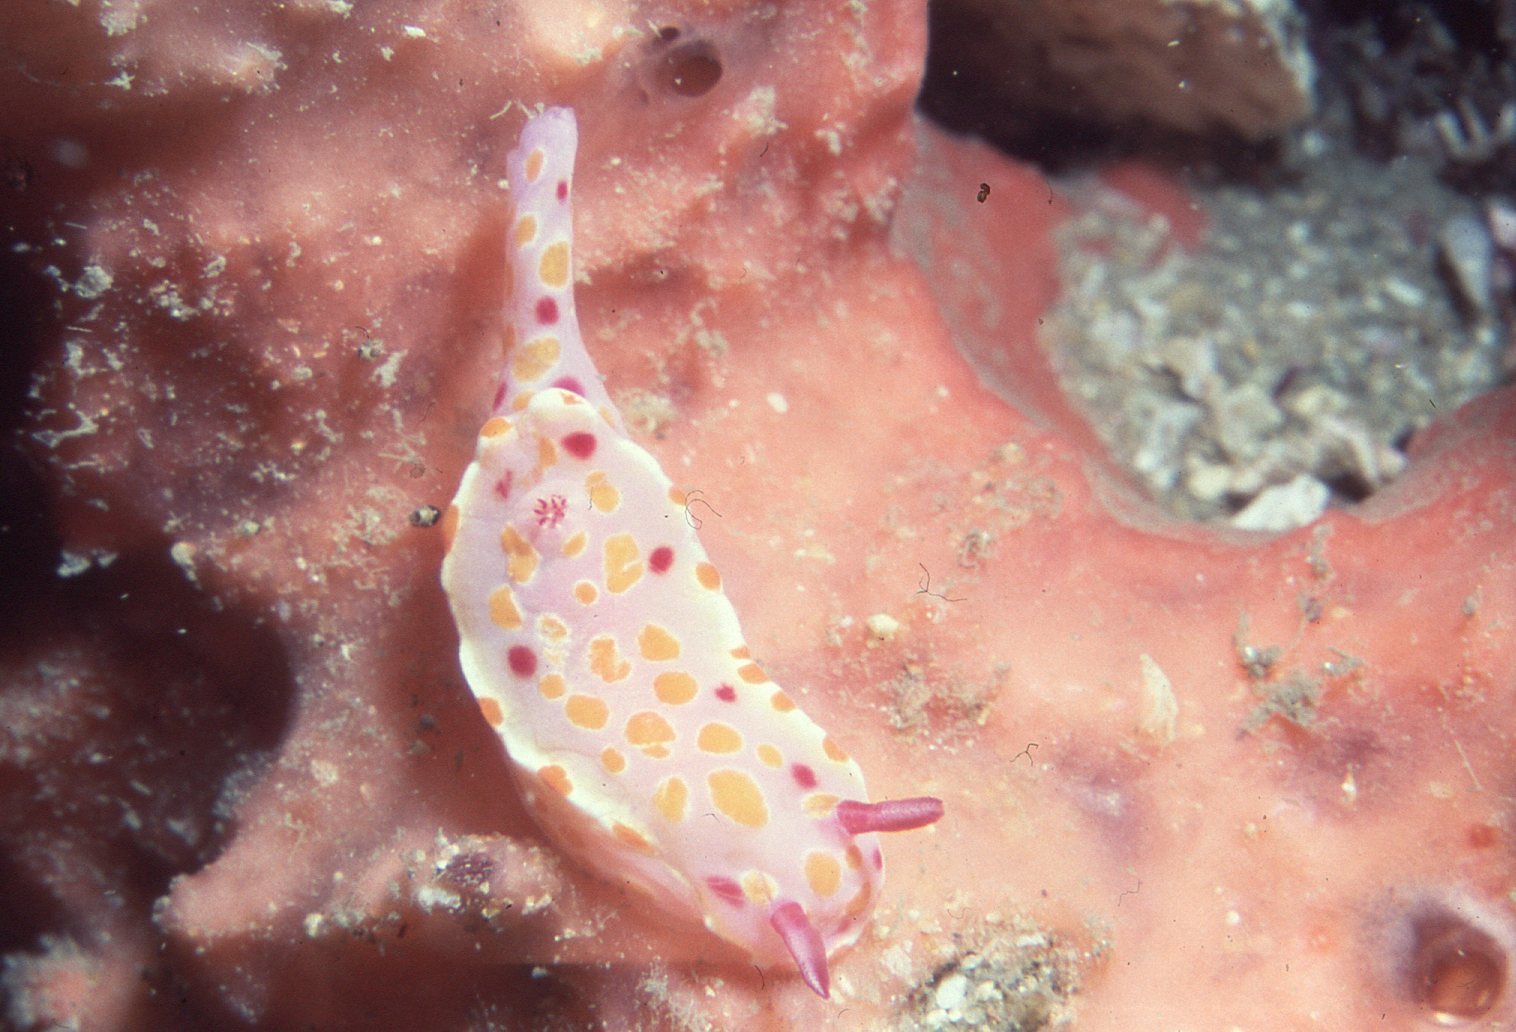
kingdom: Animalia
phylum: Mollusca
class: Gastropoda
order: Nudibranchia
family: Chromodorididae
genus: Ceratosoma
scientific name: Ceratosoma amoenum
